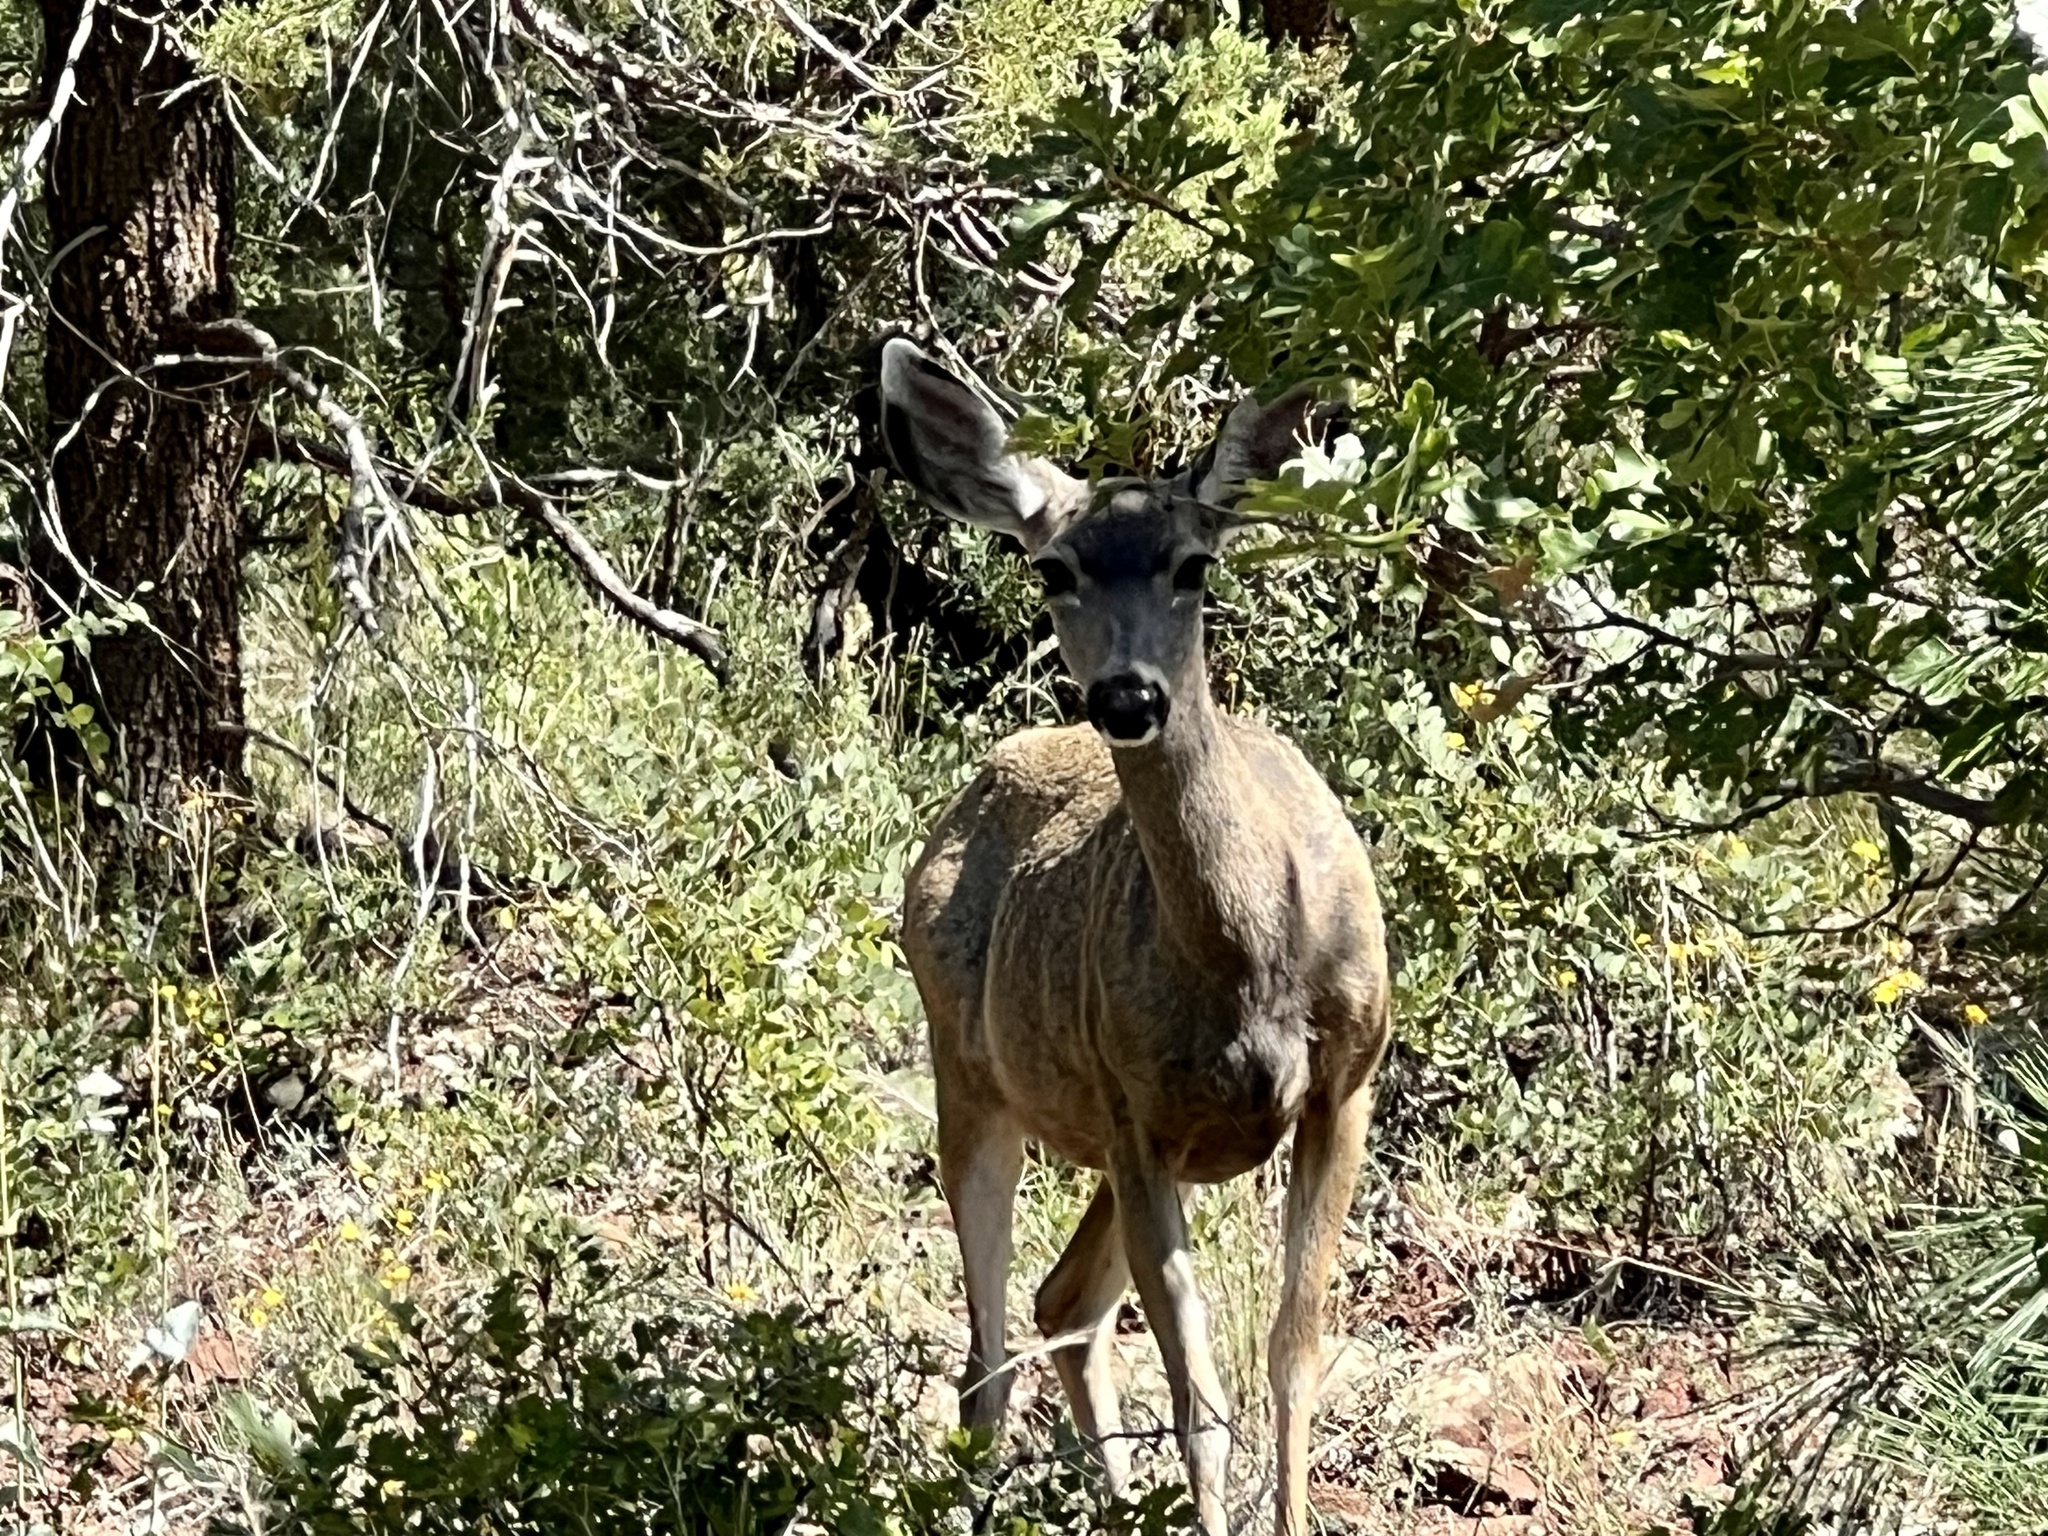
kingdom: Animalia
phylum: Chordata
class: Mammalia
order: Artiodactyla
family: Cervidae
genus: Odocoileus
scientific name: Odocoileus hemionus
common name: Mule deer
